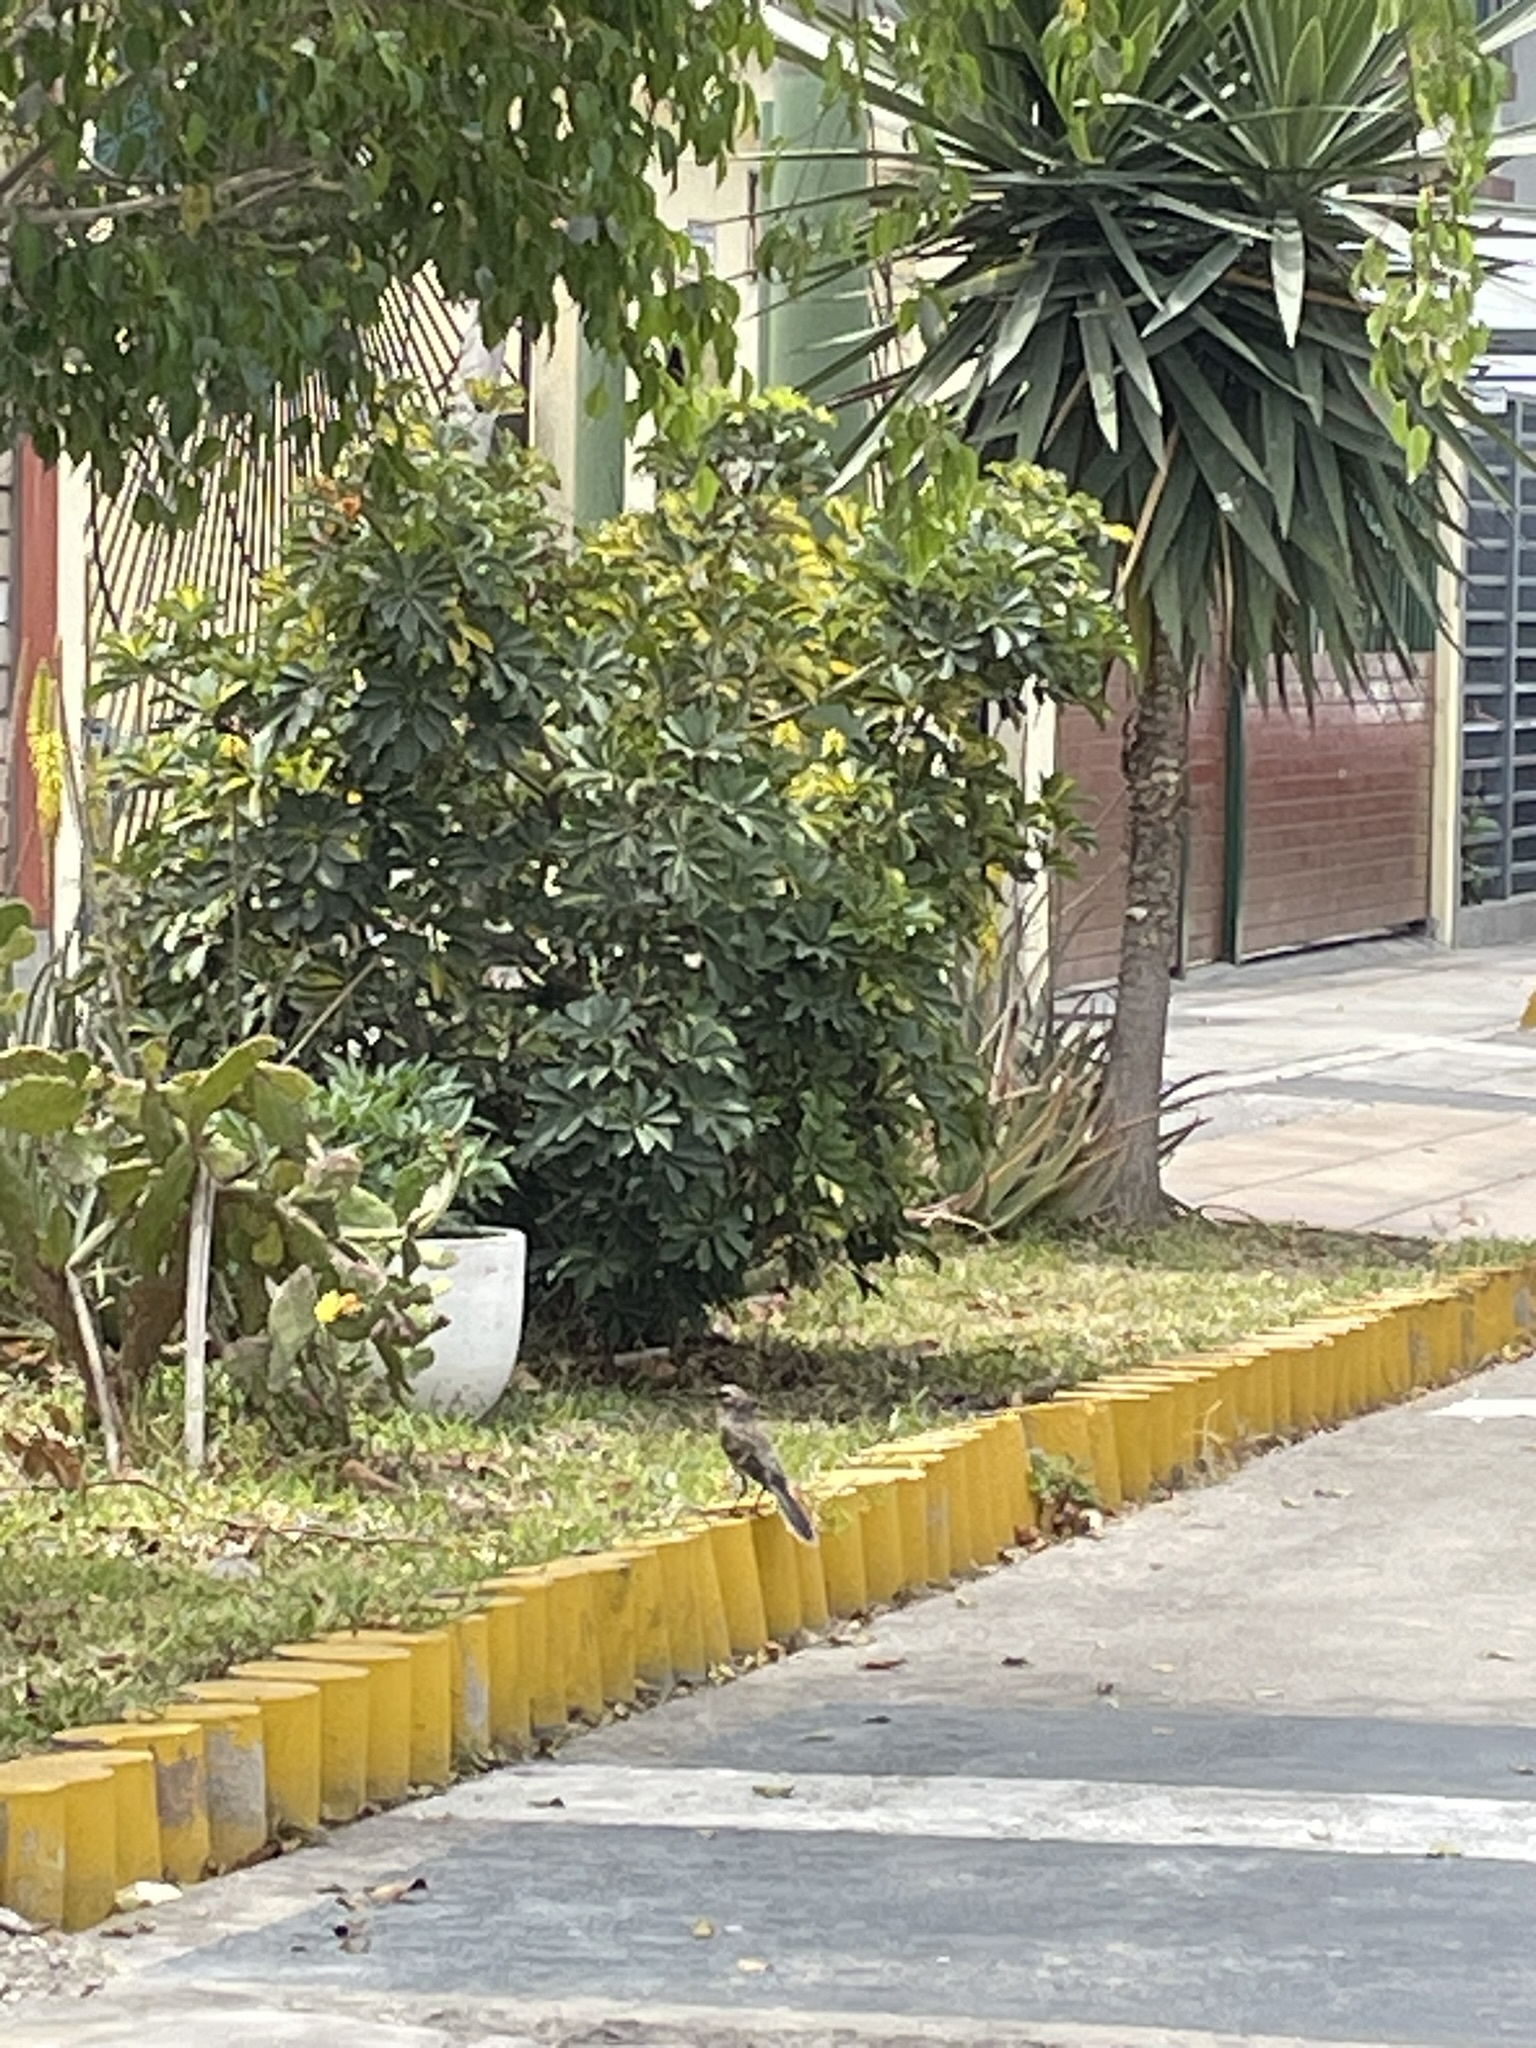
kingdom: Animalia
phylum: Chordata
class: Aves
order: Passeriformes
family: Mimidae
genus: Mimus
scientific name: Mimus longicaudatus
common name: Long-tailed mockingbird
